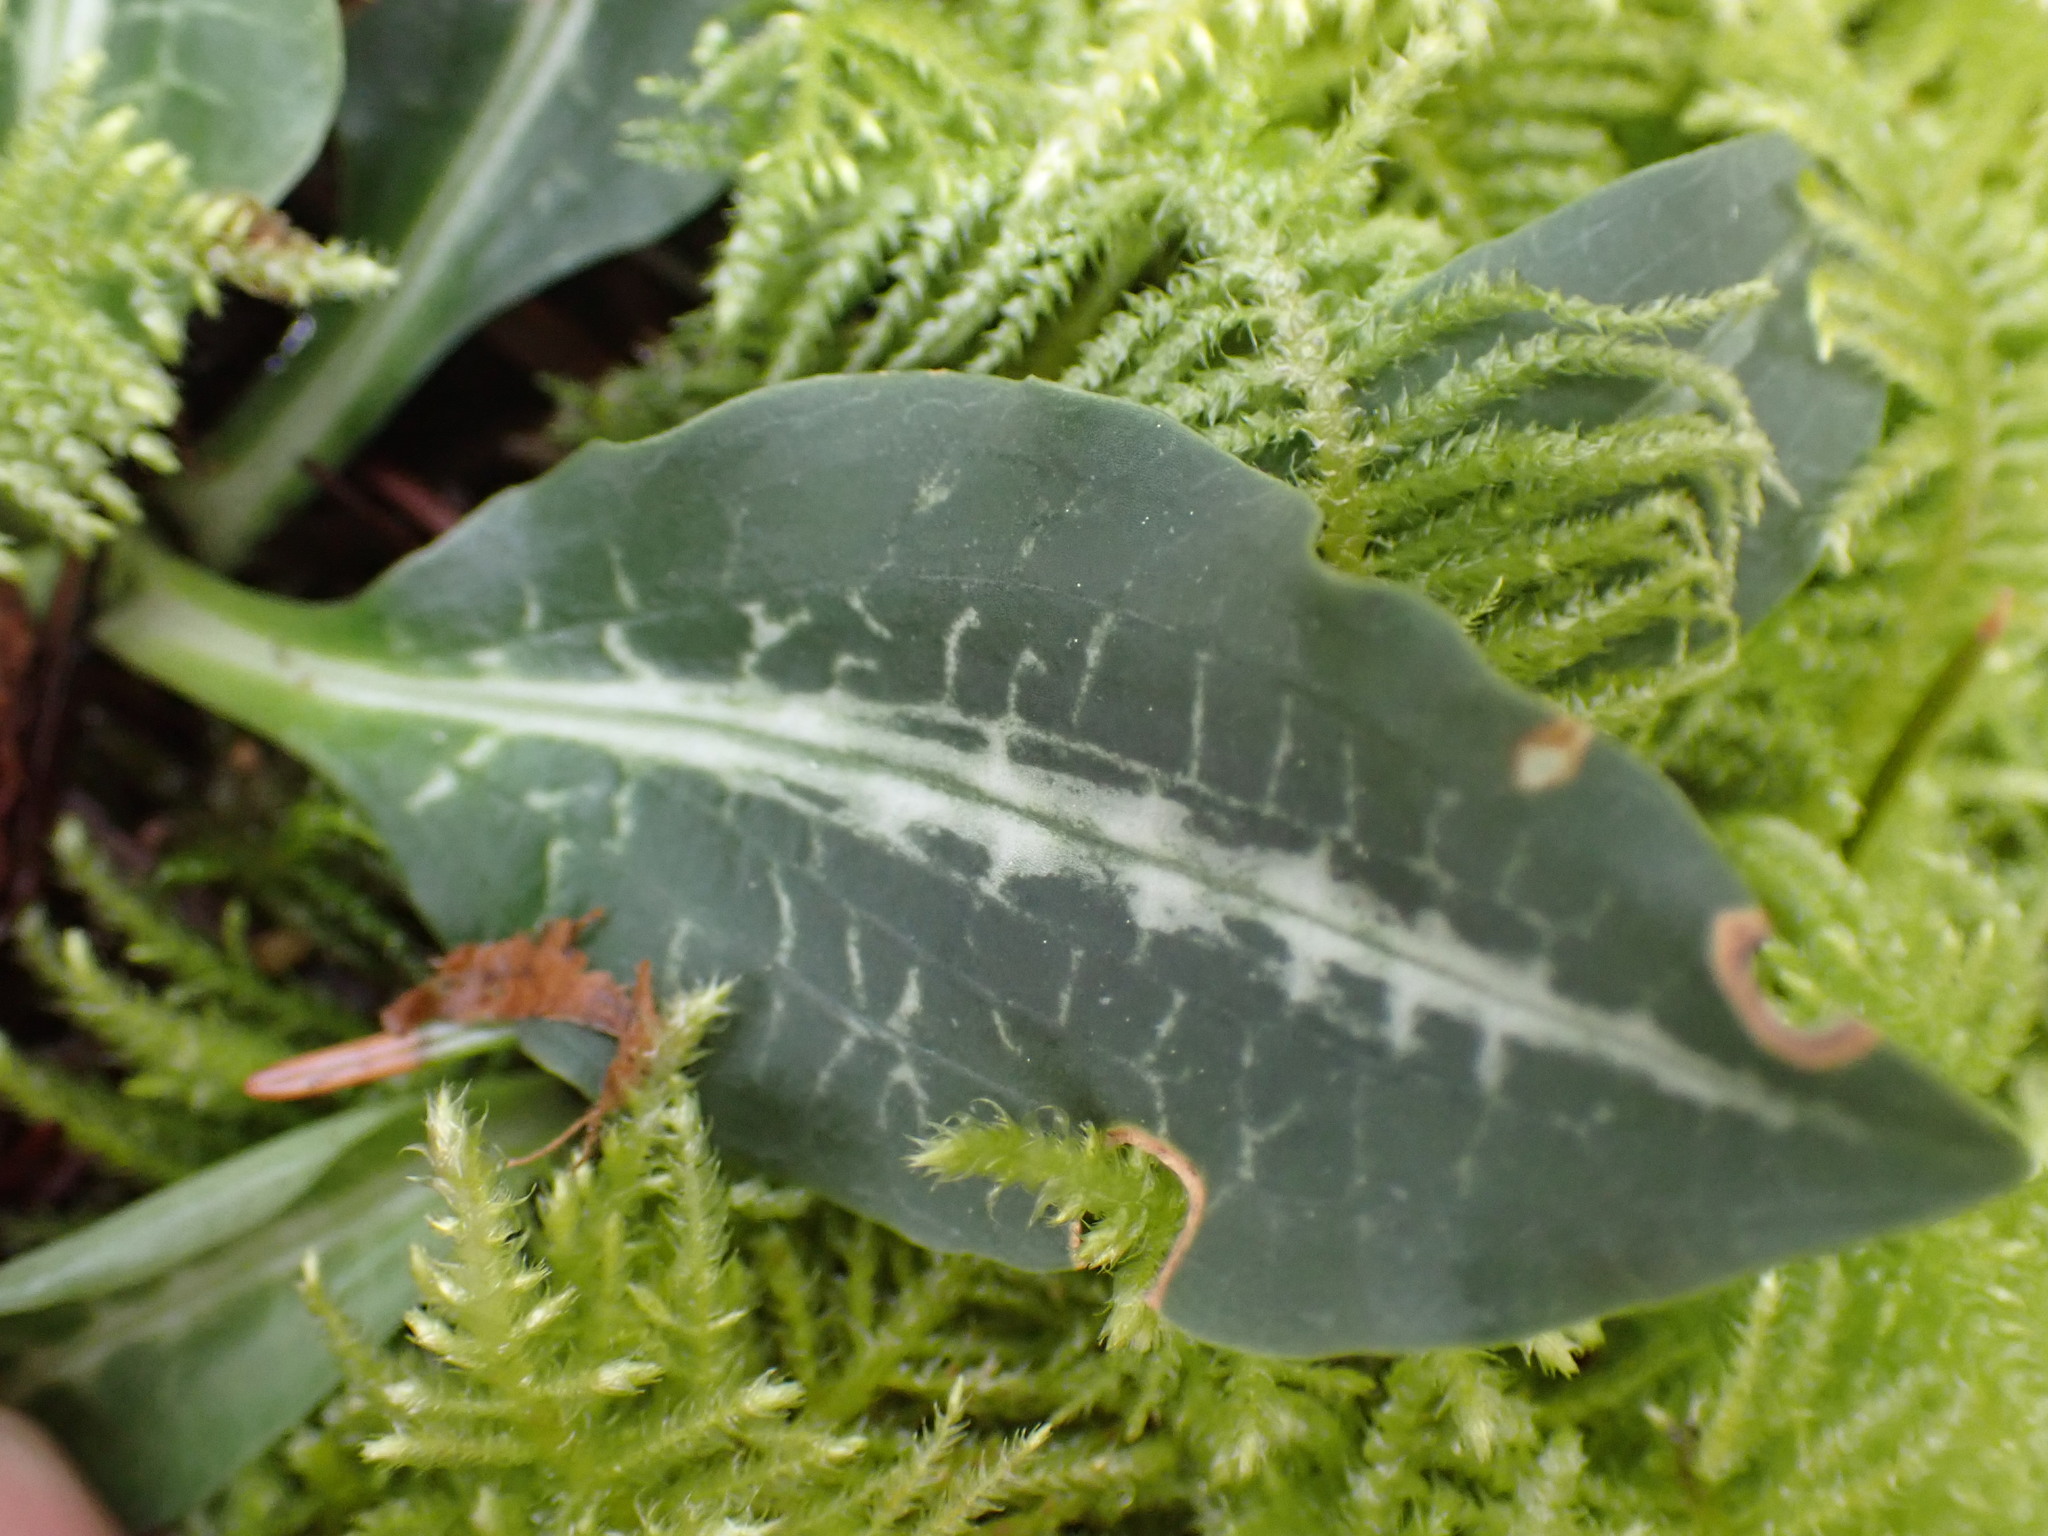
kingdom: Plantae
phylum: Tracheophyta
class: Liliopsida
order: Asparagales
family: Orchidaceae
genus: Goodyera
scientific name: Goodyera oblongifolia
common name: Giant rattlesnake-plantain
